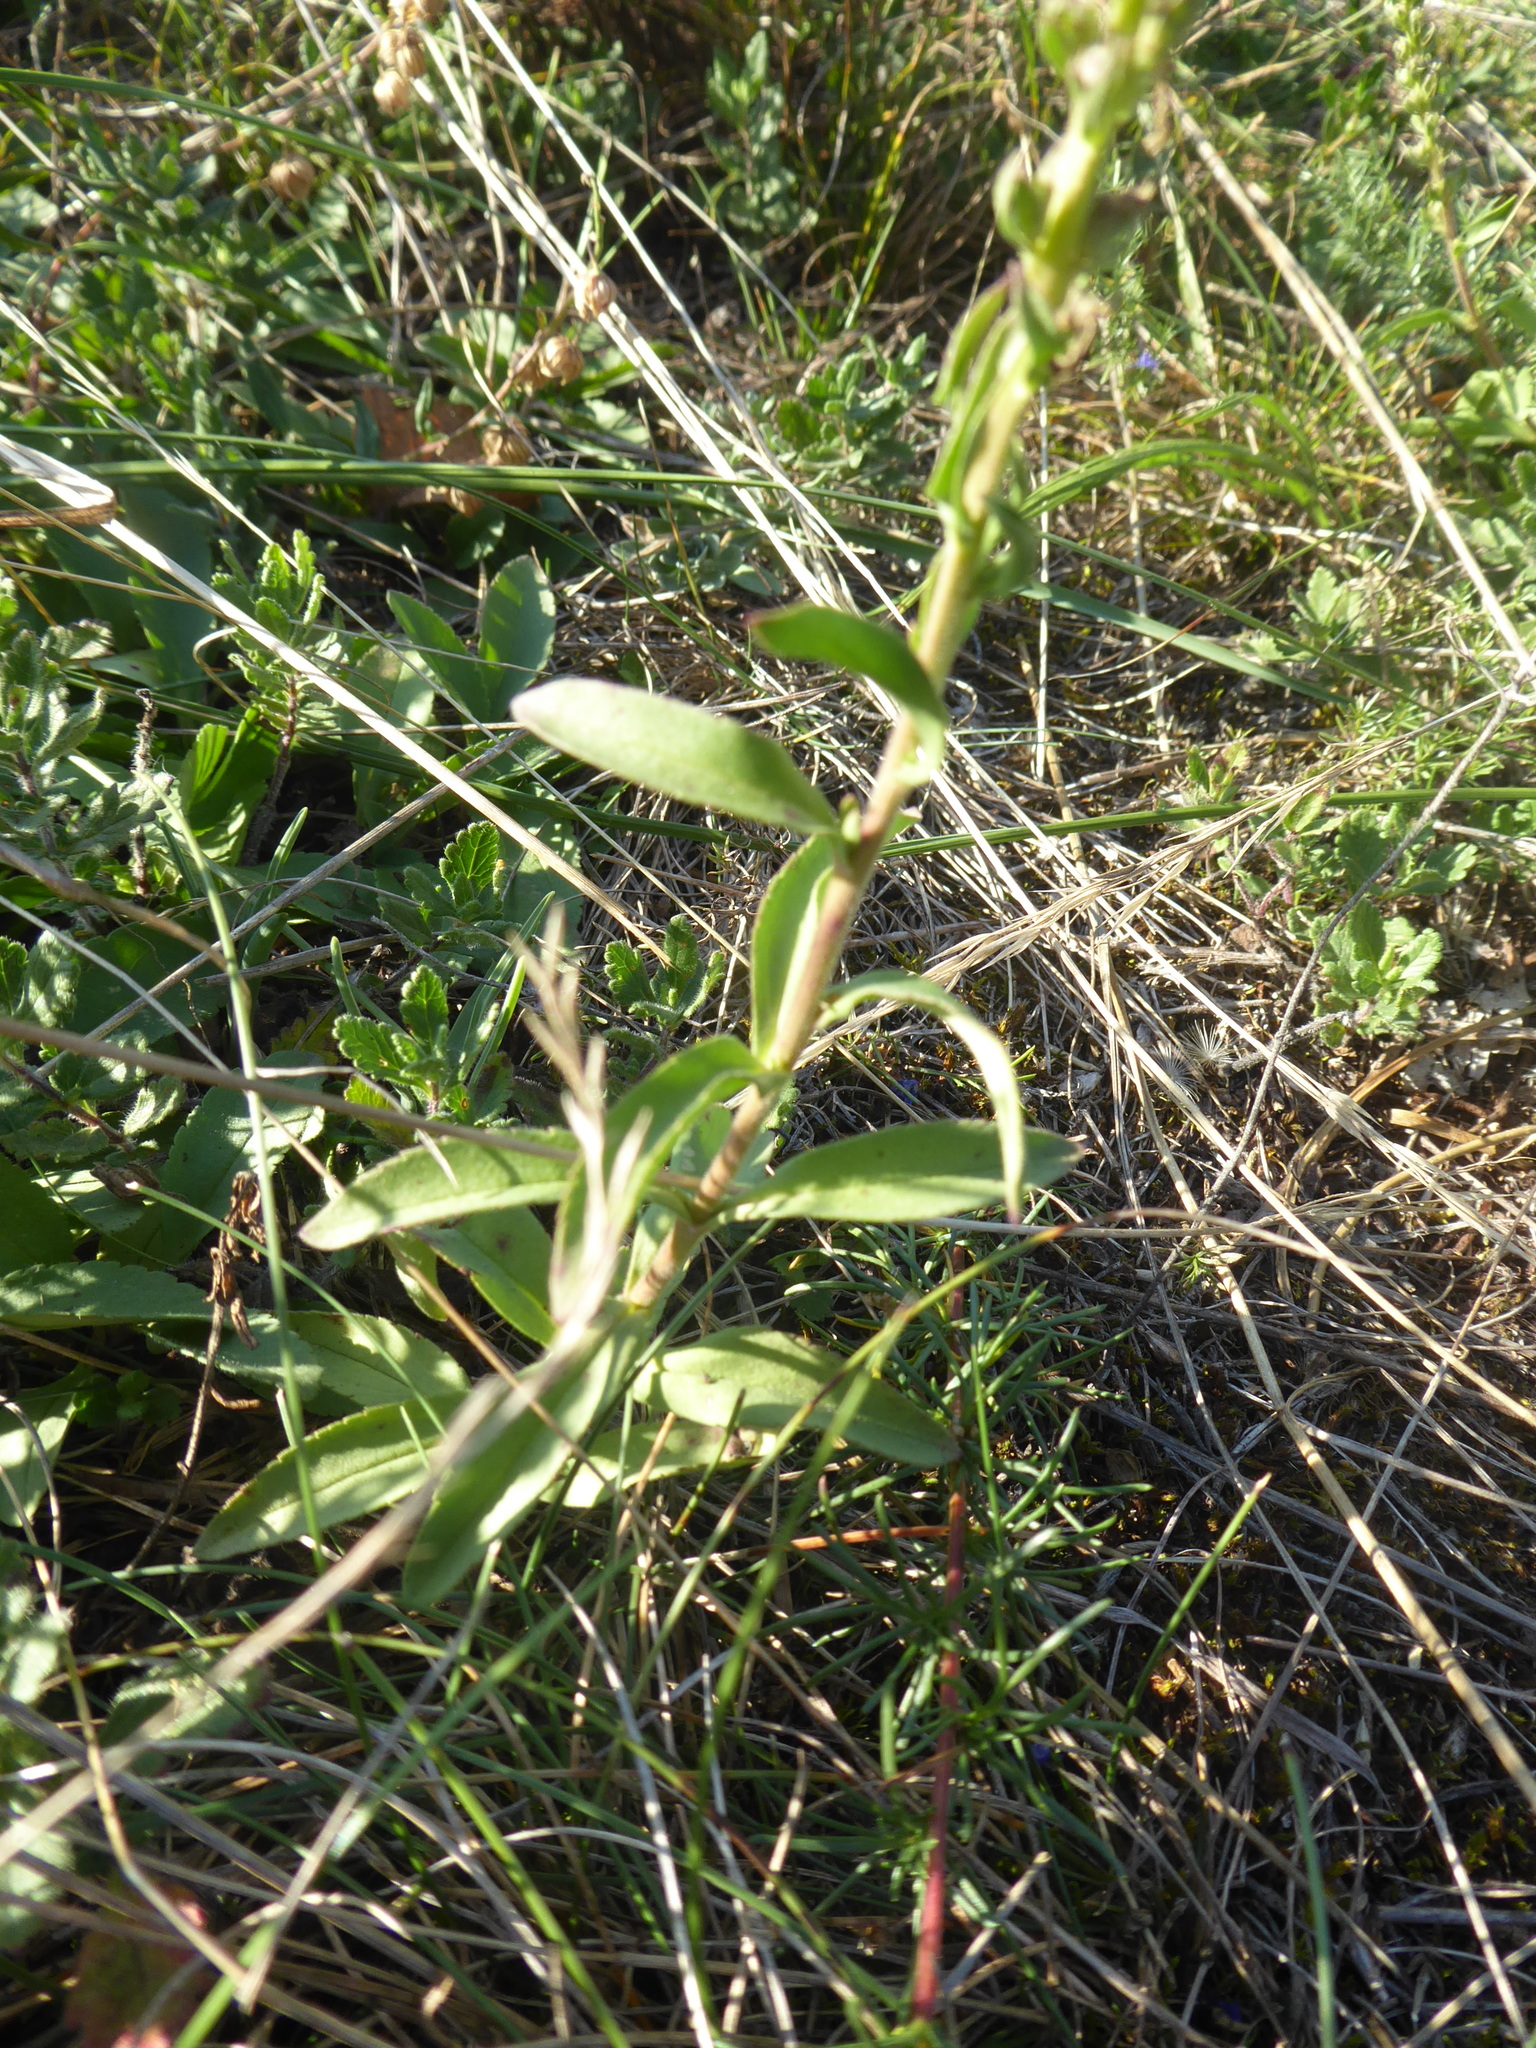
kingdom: Plantae
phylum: Tracheophyta
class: Magnoliopsida
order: Lamiales
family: Plantaginaceae
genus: Veronica
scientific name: Veronica spicata
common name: Spiked speedwell
